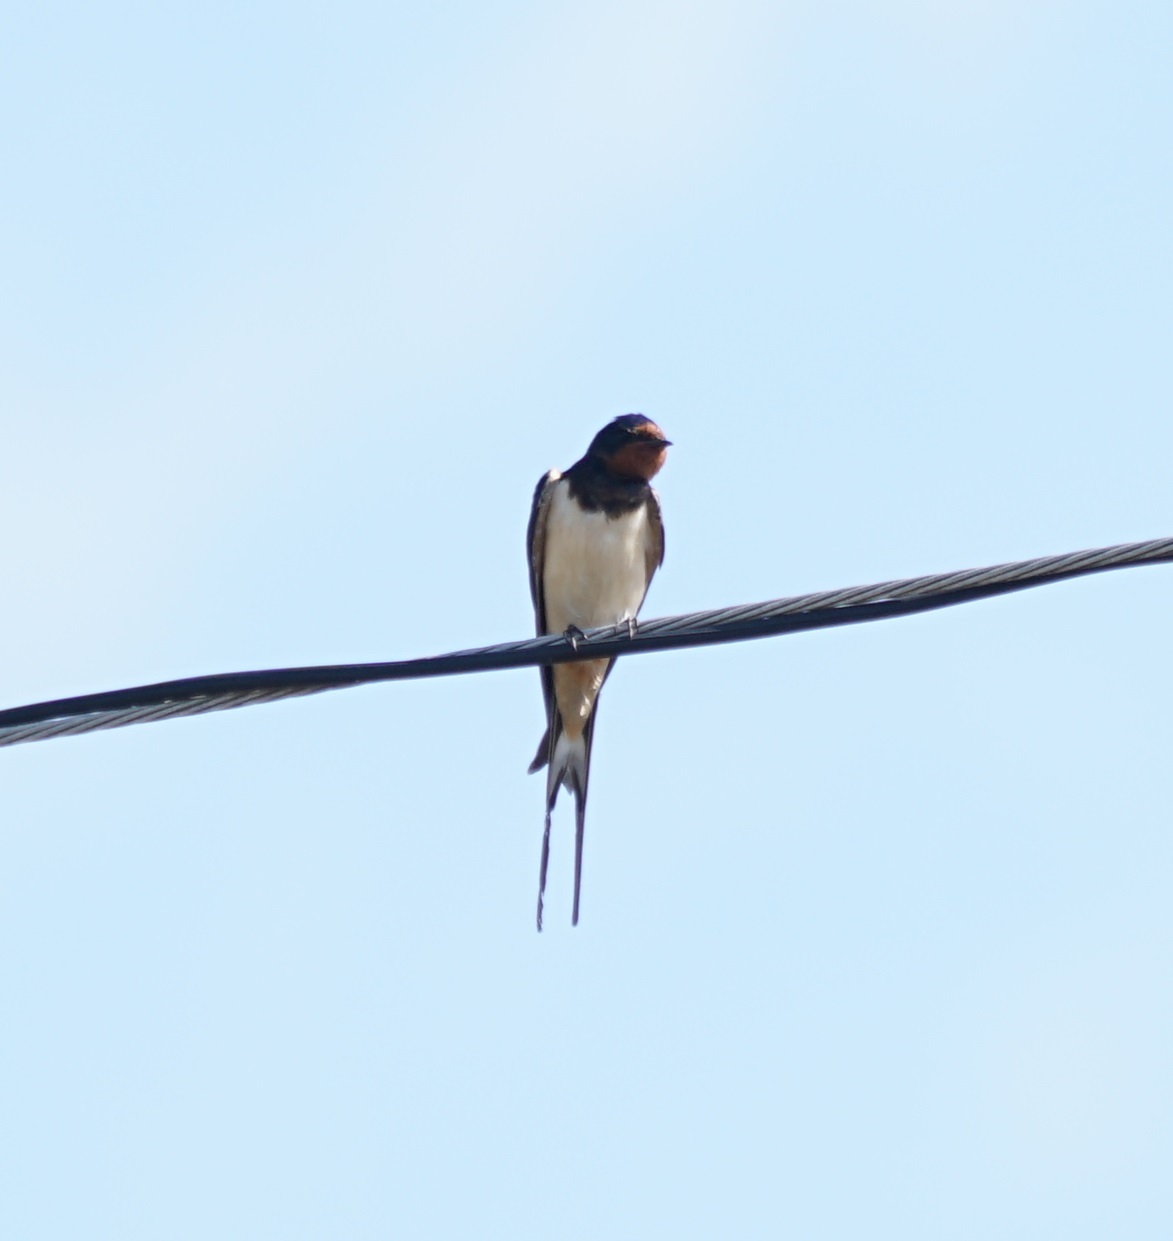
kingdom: Animalia
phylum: Chordata
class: Aves
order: Passeriformes
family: Hirundinidae
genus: Hirundo
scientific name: Hirundo rustica
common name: Barn swallow
